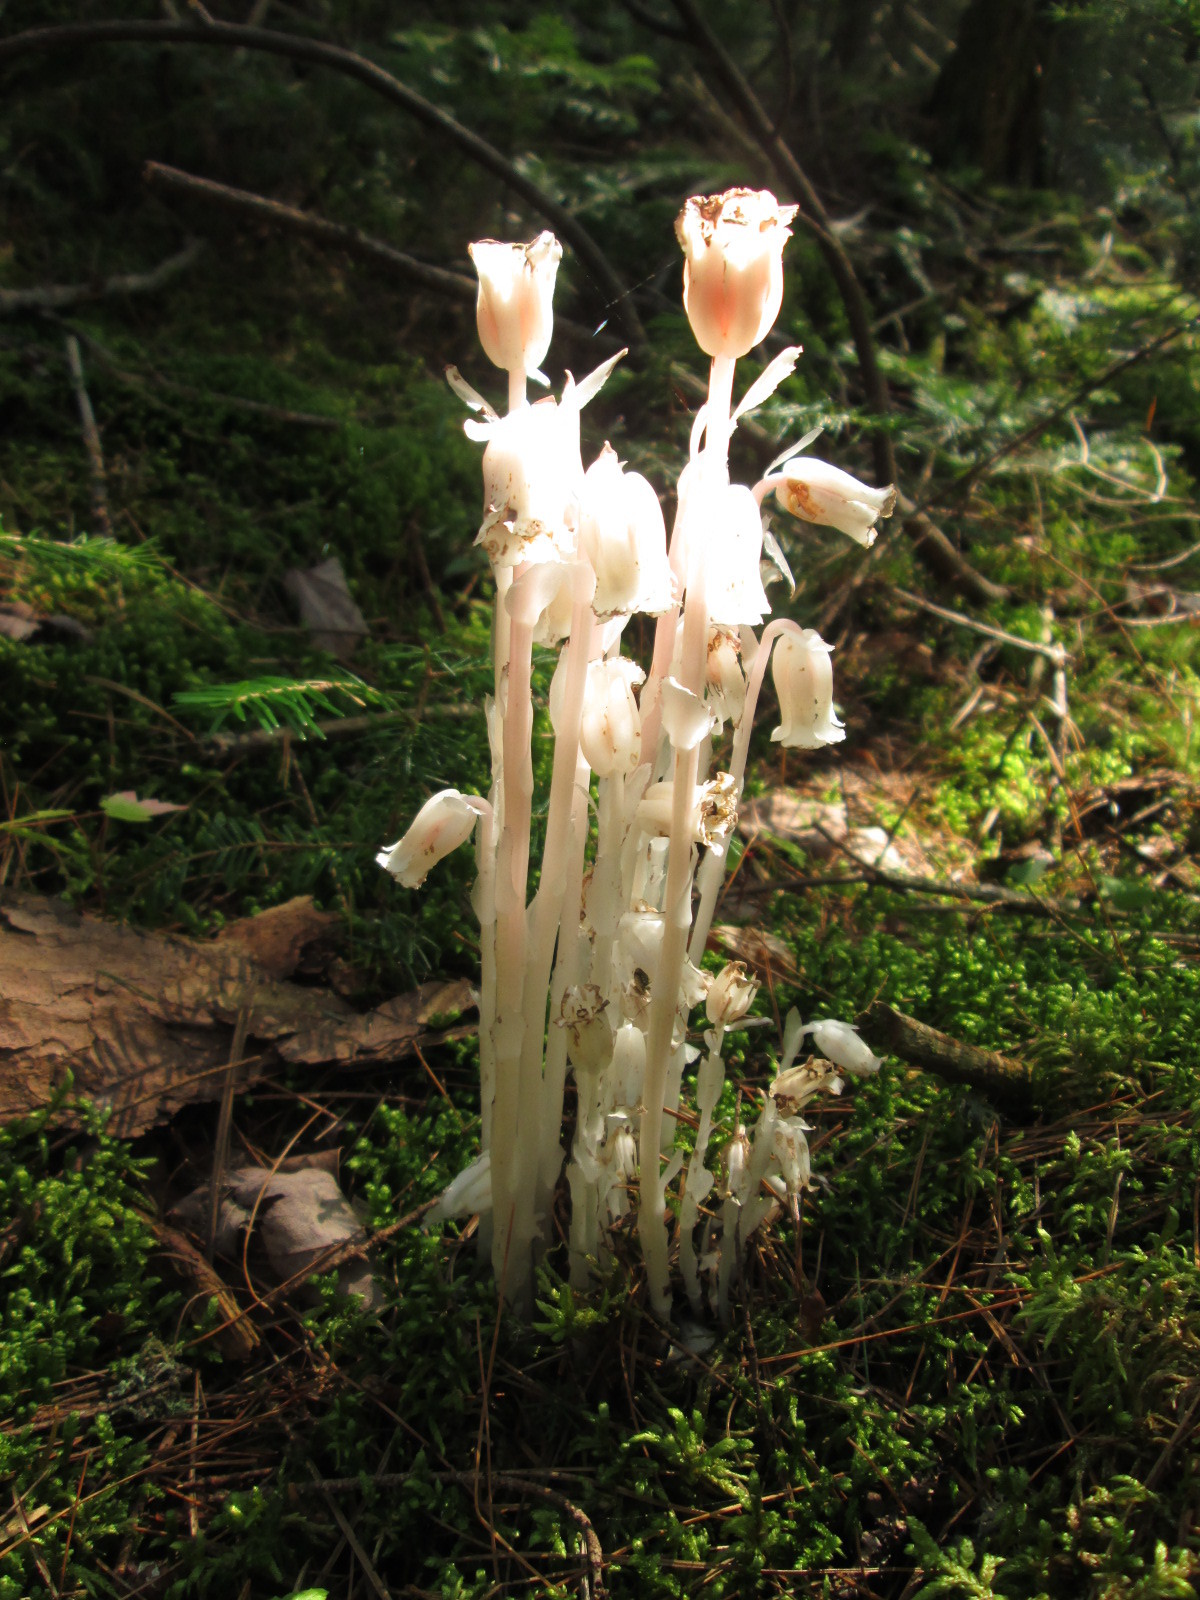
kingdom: Plantae
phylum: Tracheophyta
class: Magnoliopsida
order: Ericales
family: Ericaceae
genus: Monotropa
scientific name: Monotropa uniflora
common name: Convulsion root
